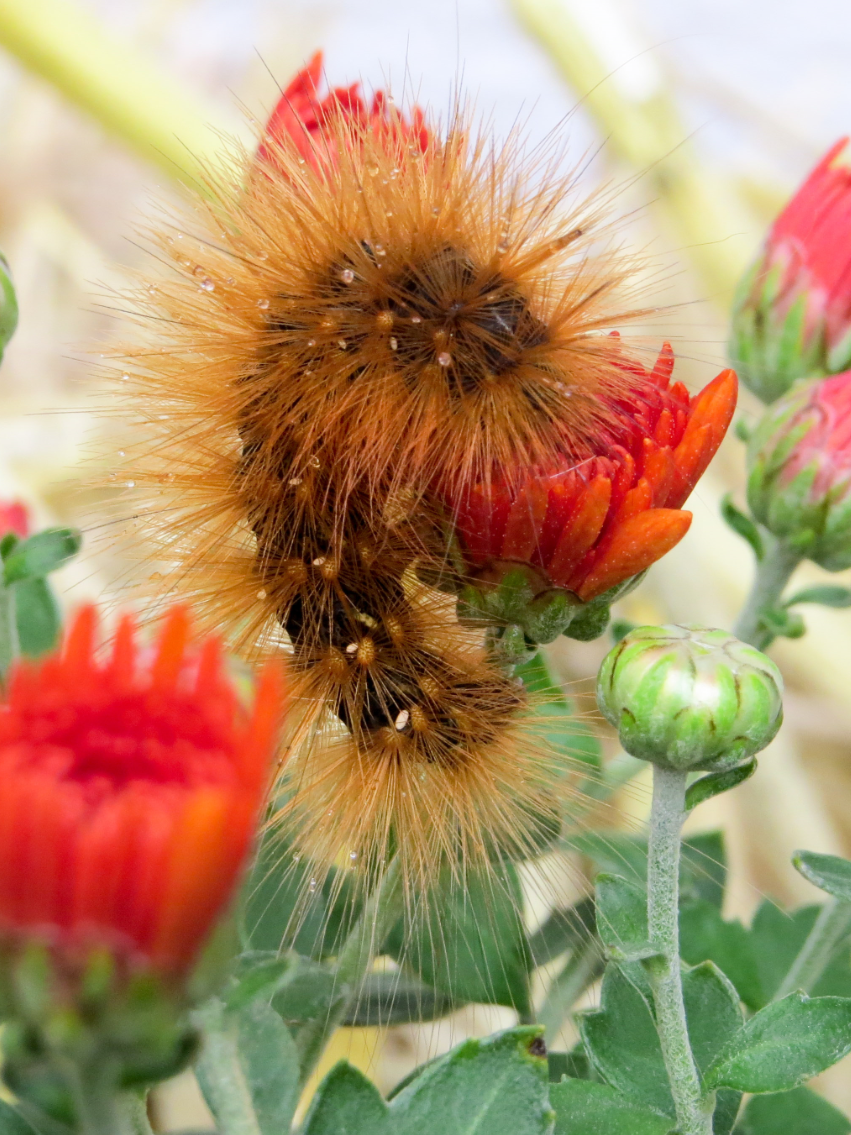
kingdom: Animalia
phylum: Arthropoda
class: Insecta
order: Lepidoptera
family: Erebidae
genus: Spilosoma
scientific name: Spilosoma virginica
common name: Virginia tiger moth
